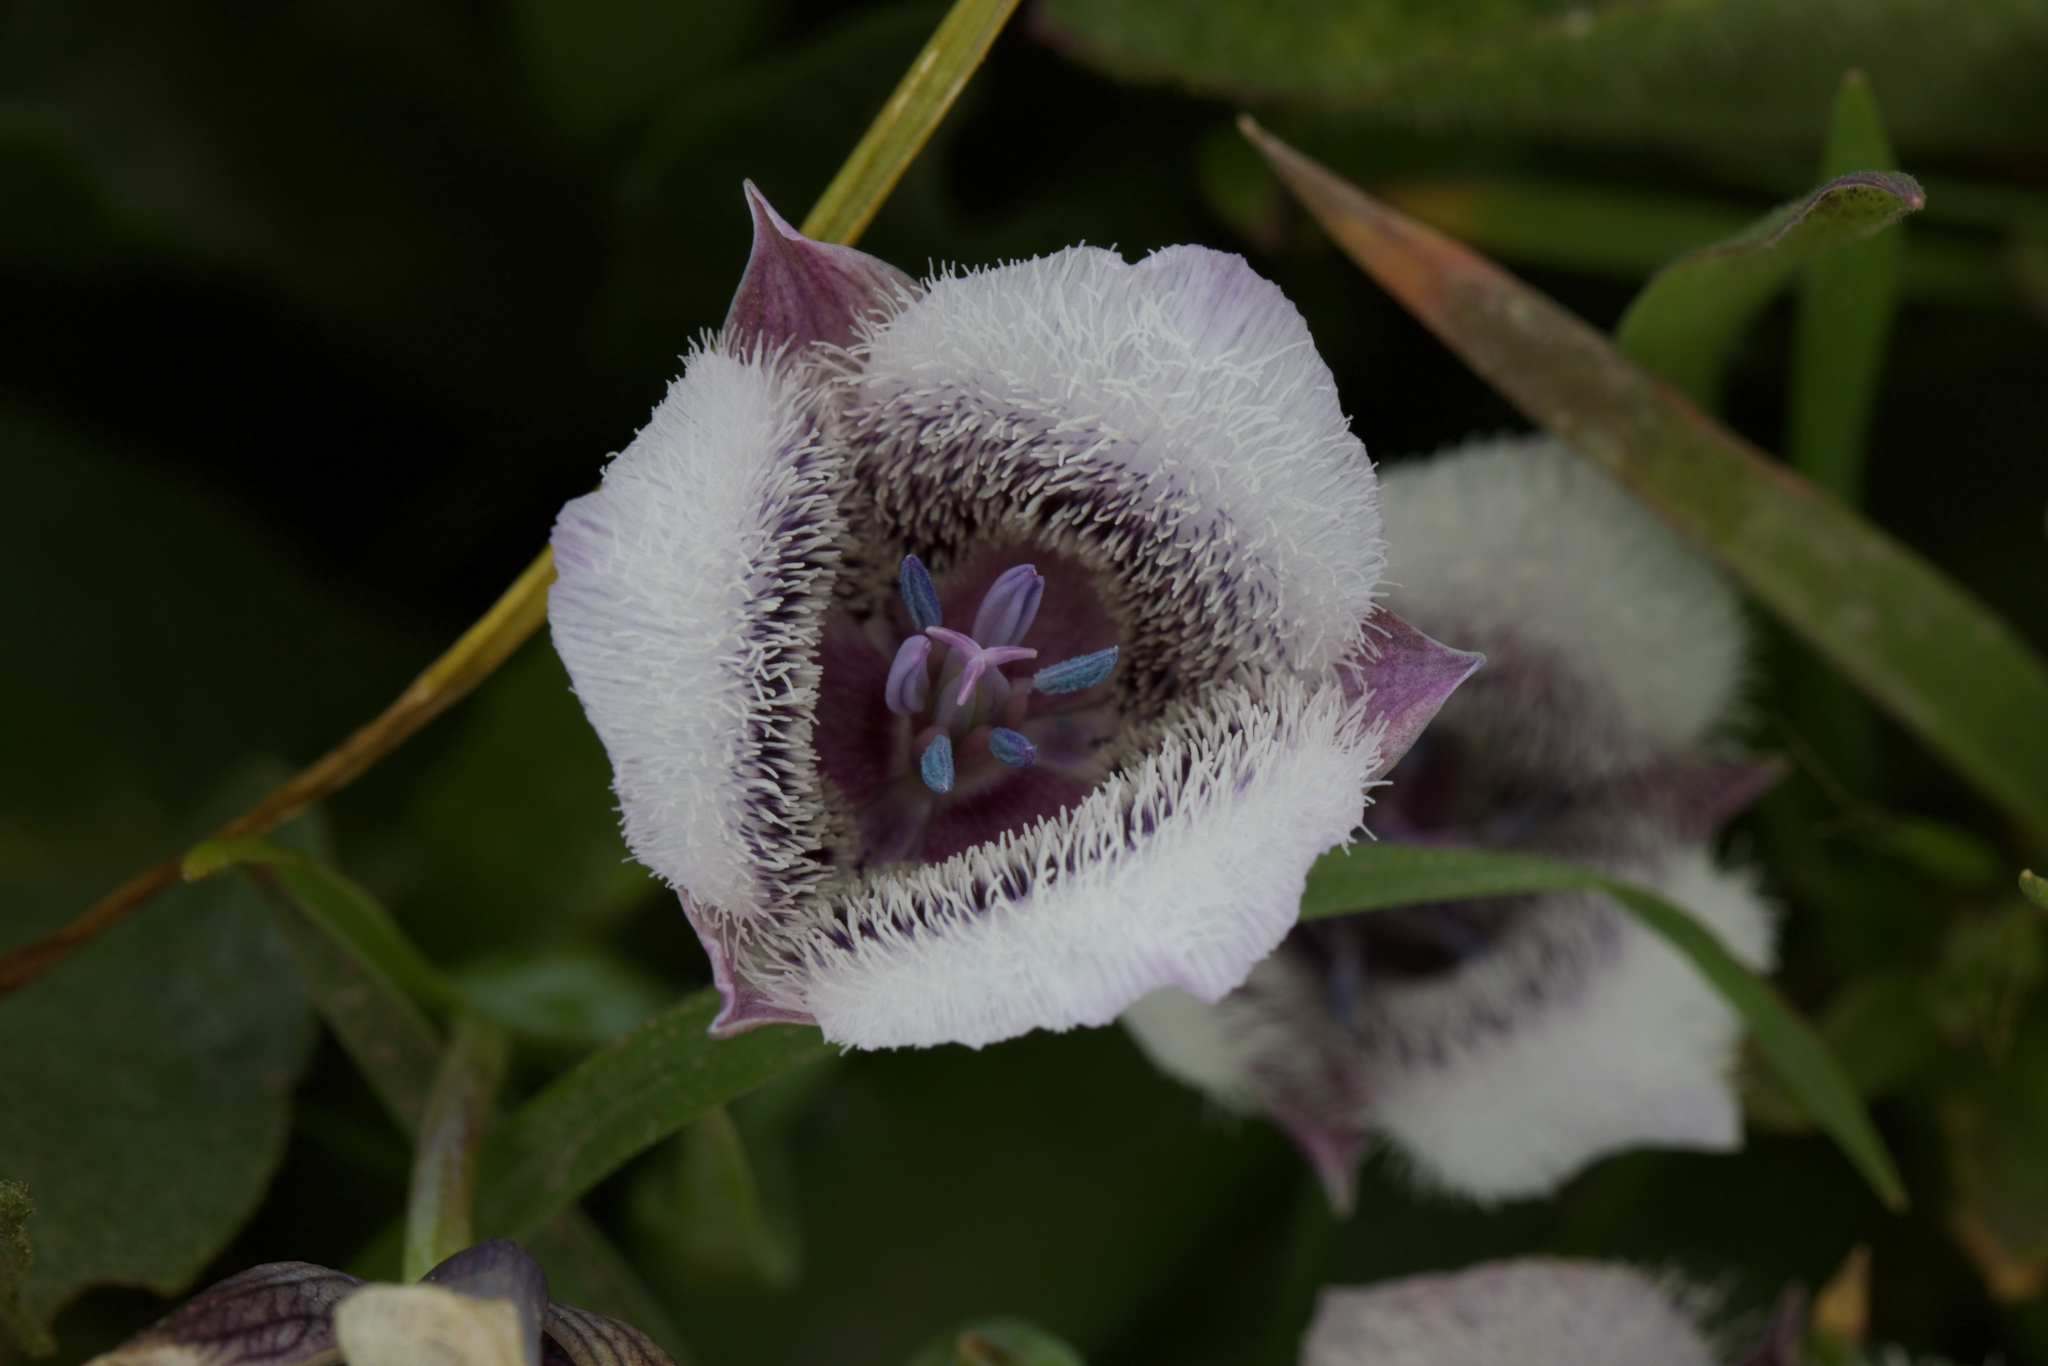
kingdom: Plantae
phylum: Tracheophyta
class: Liliopsida
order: Liliales
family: Liliaceae
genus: Calochortus
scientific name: Calochortus tolmiei
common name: Pussy-ears
